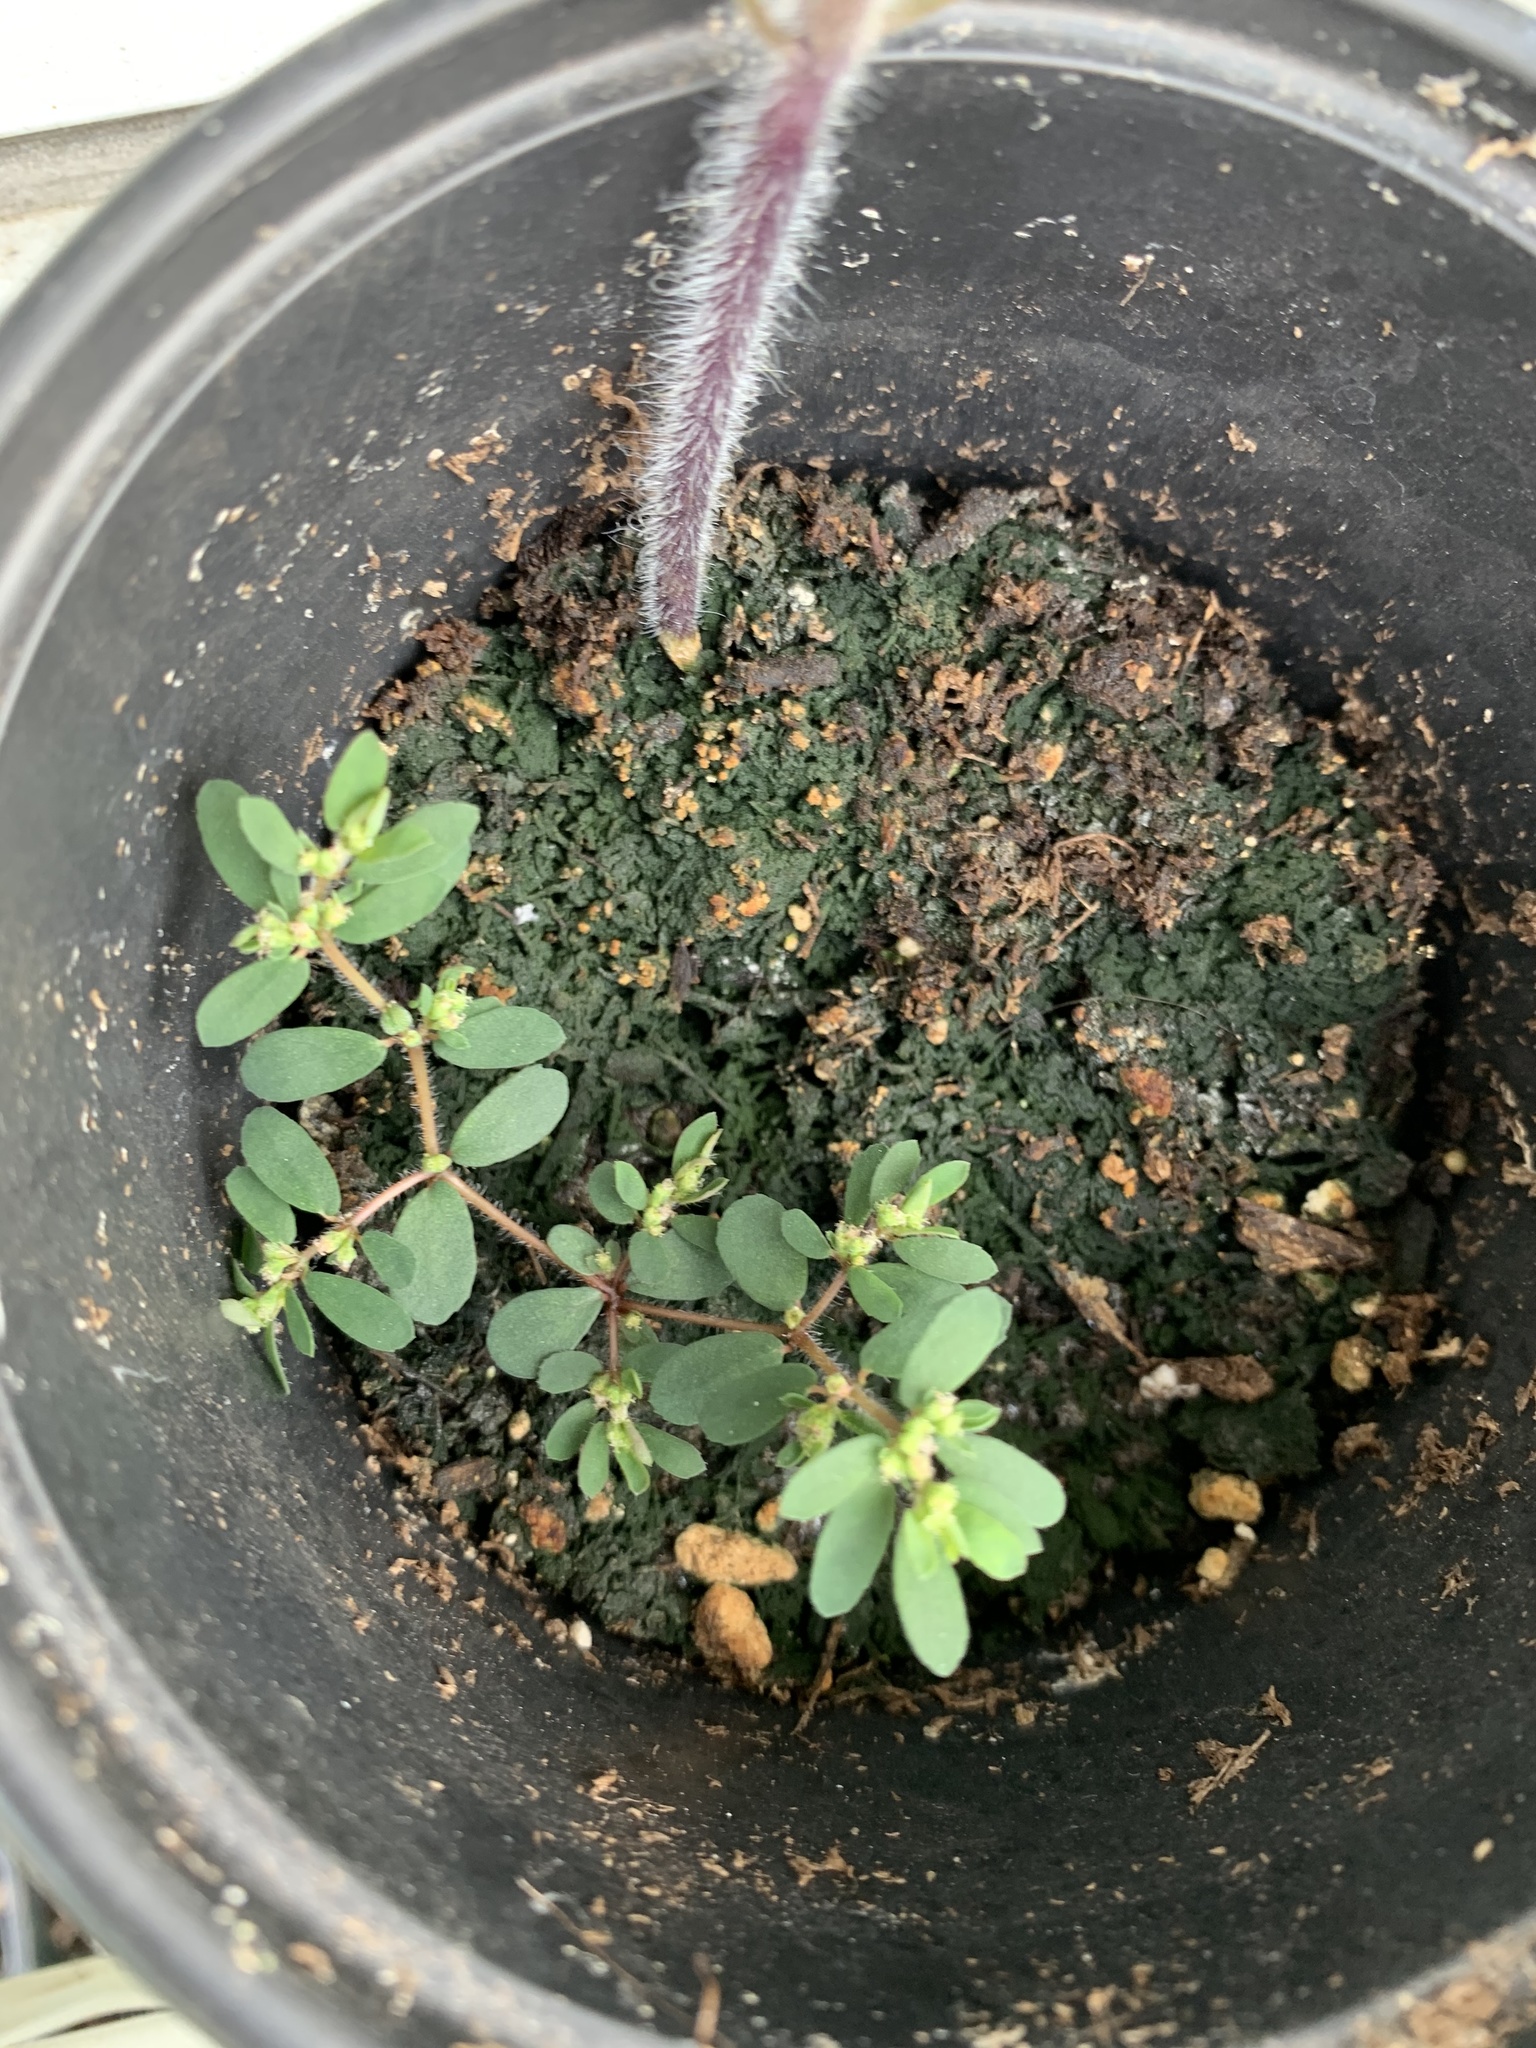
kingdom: Plantae
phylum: Tracheophyta
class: Magnoliopsida
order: Malpighiales
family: Euphorbiaceae
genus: Euphorbia
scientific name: Euphorbia maculata
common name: Spotted spurge
